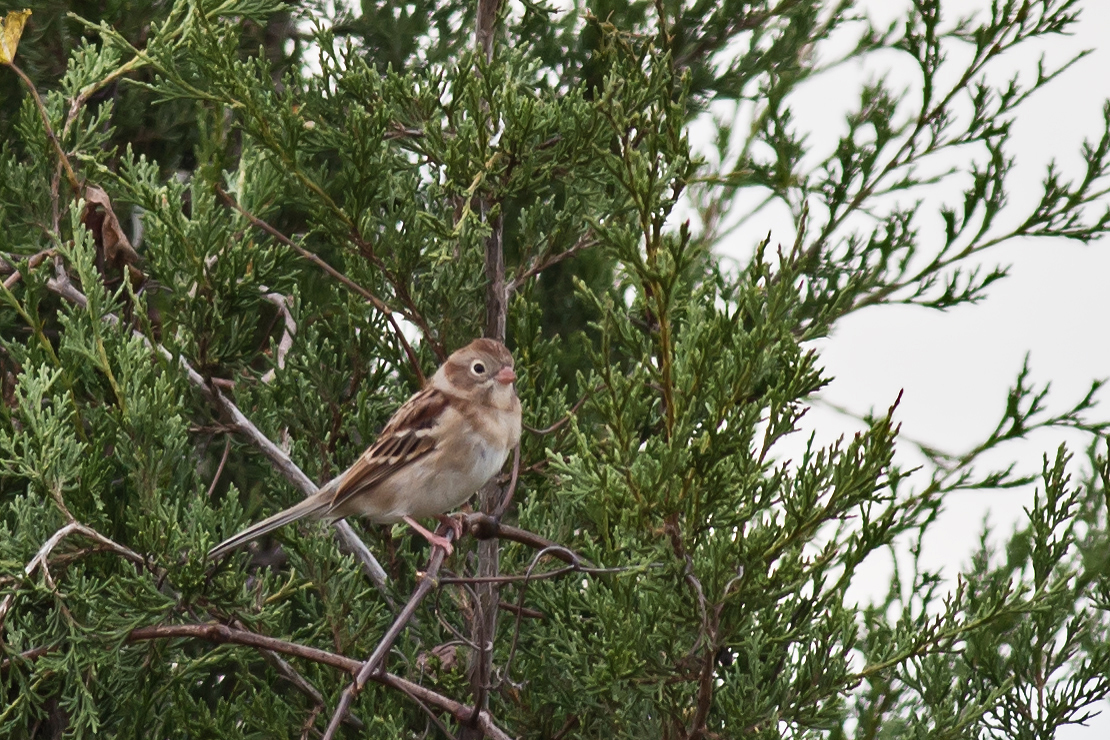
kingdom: Animalia
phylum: Chordata
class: Aves
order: Passeriformes
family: Passerellidae
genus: Spizella
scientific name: Spizella pusilla
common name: Field sparrow
